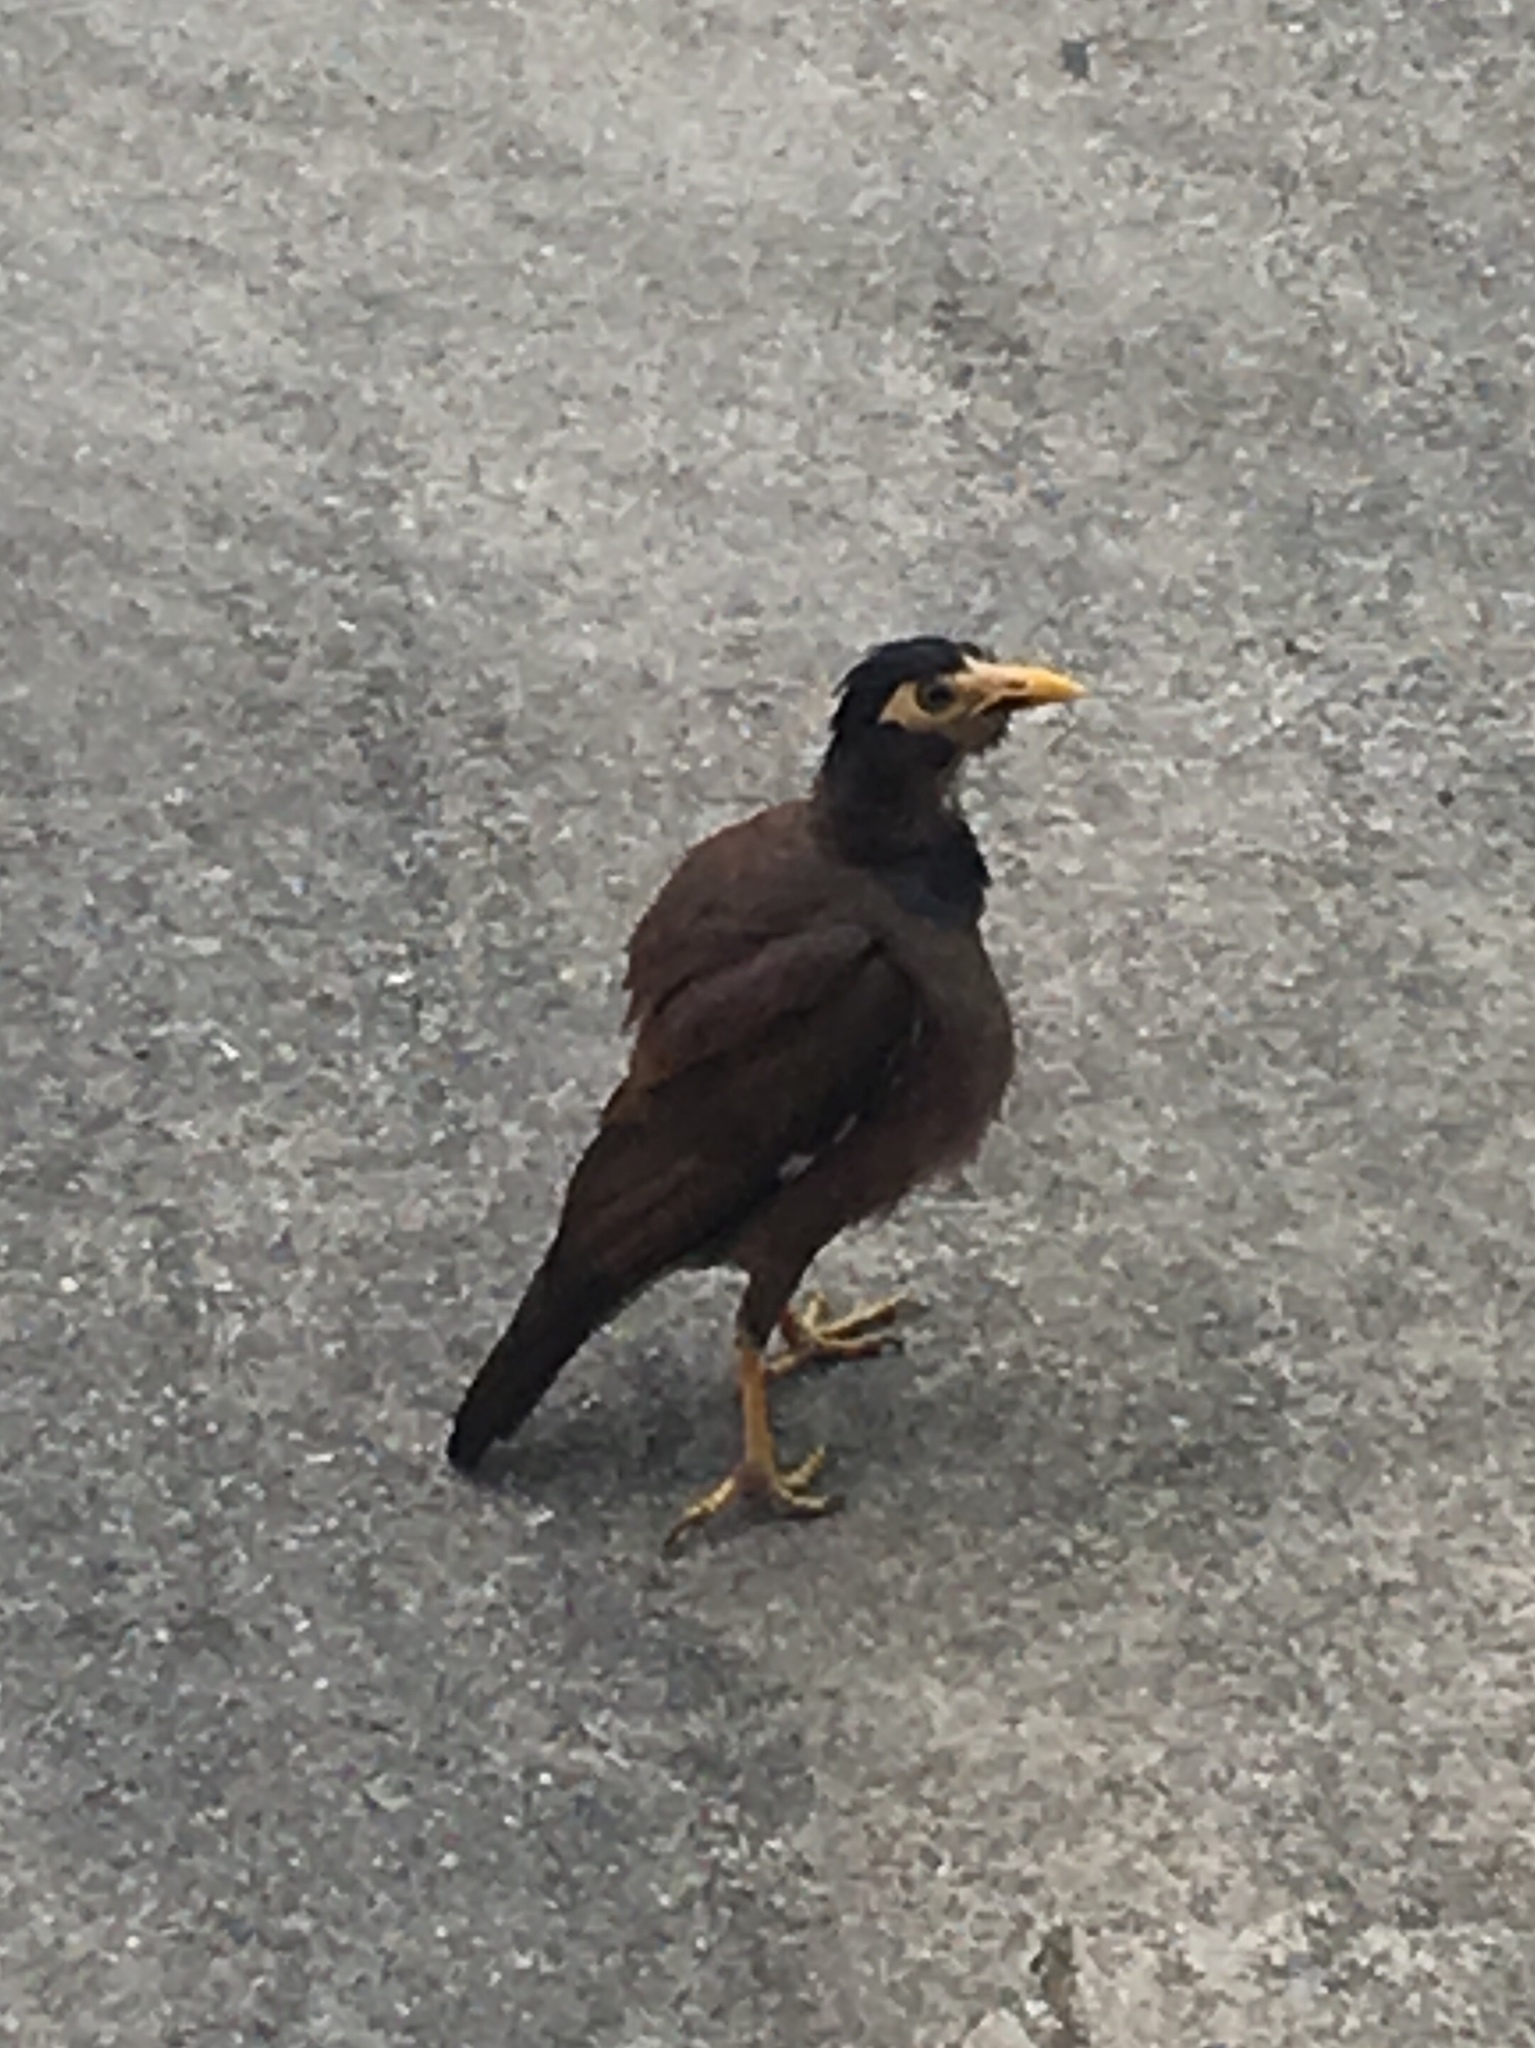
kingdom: Animalia
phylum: Chordata
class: Aves
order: Passeriformes
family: Sturnidae
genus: Acridotheres
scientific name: Acridotheres tristis
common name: Common myna
